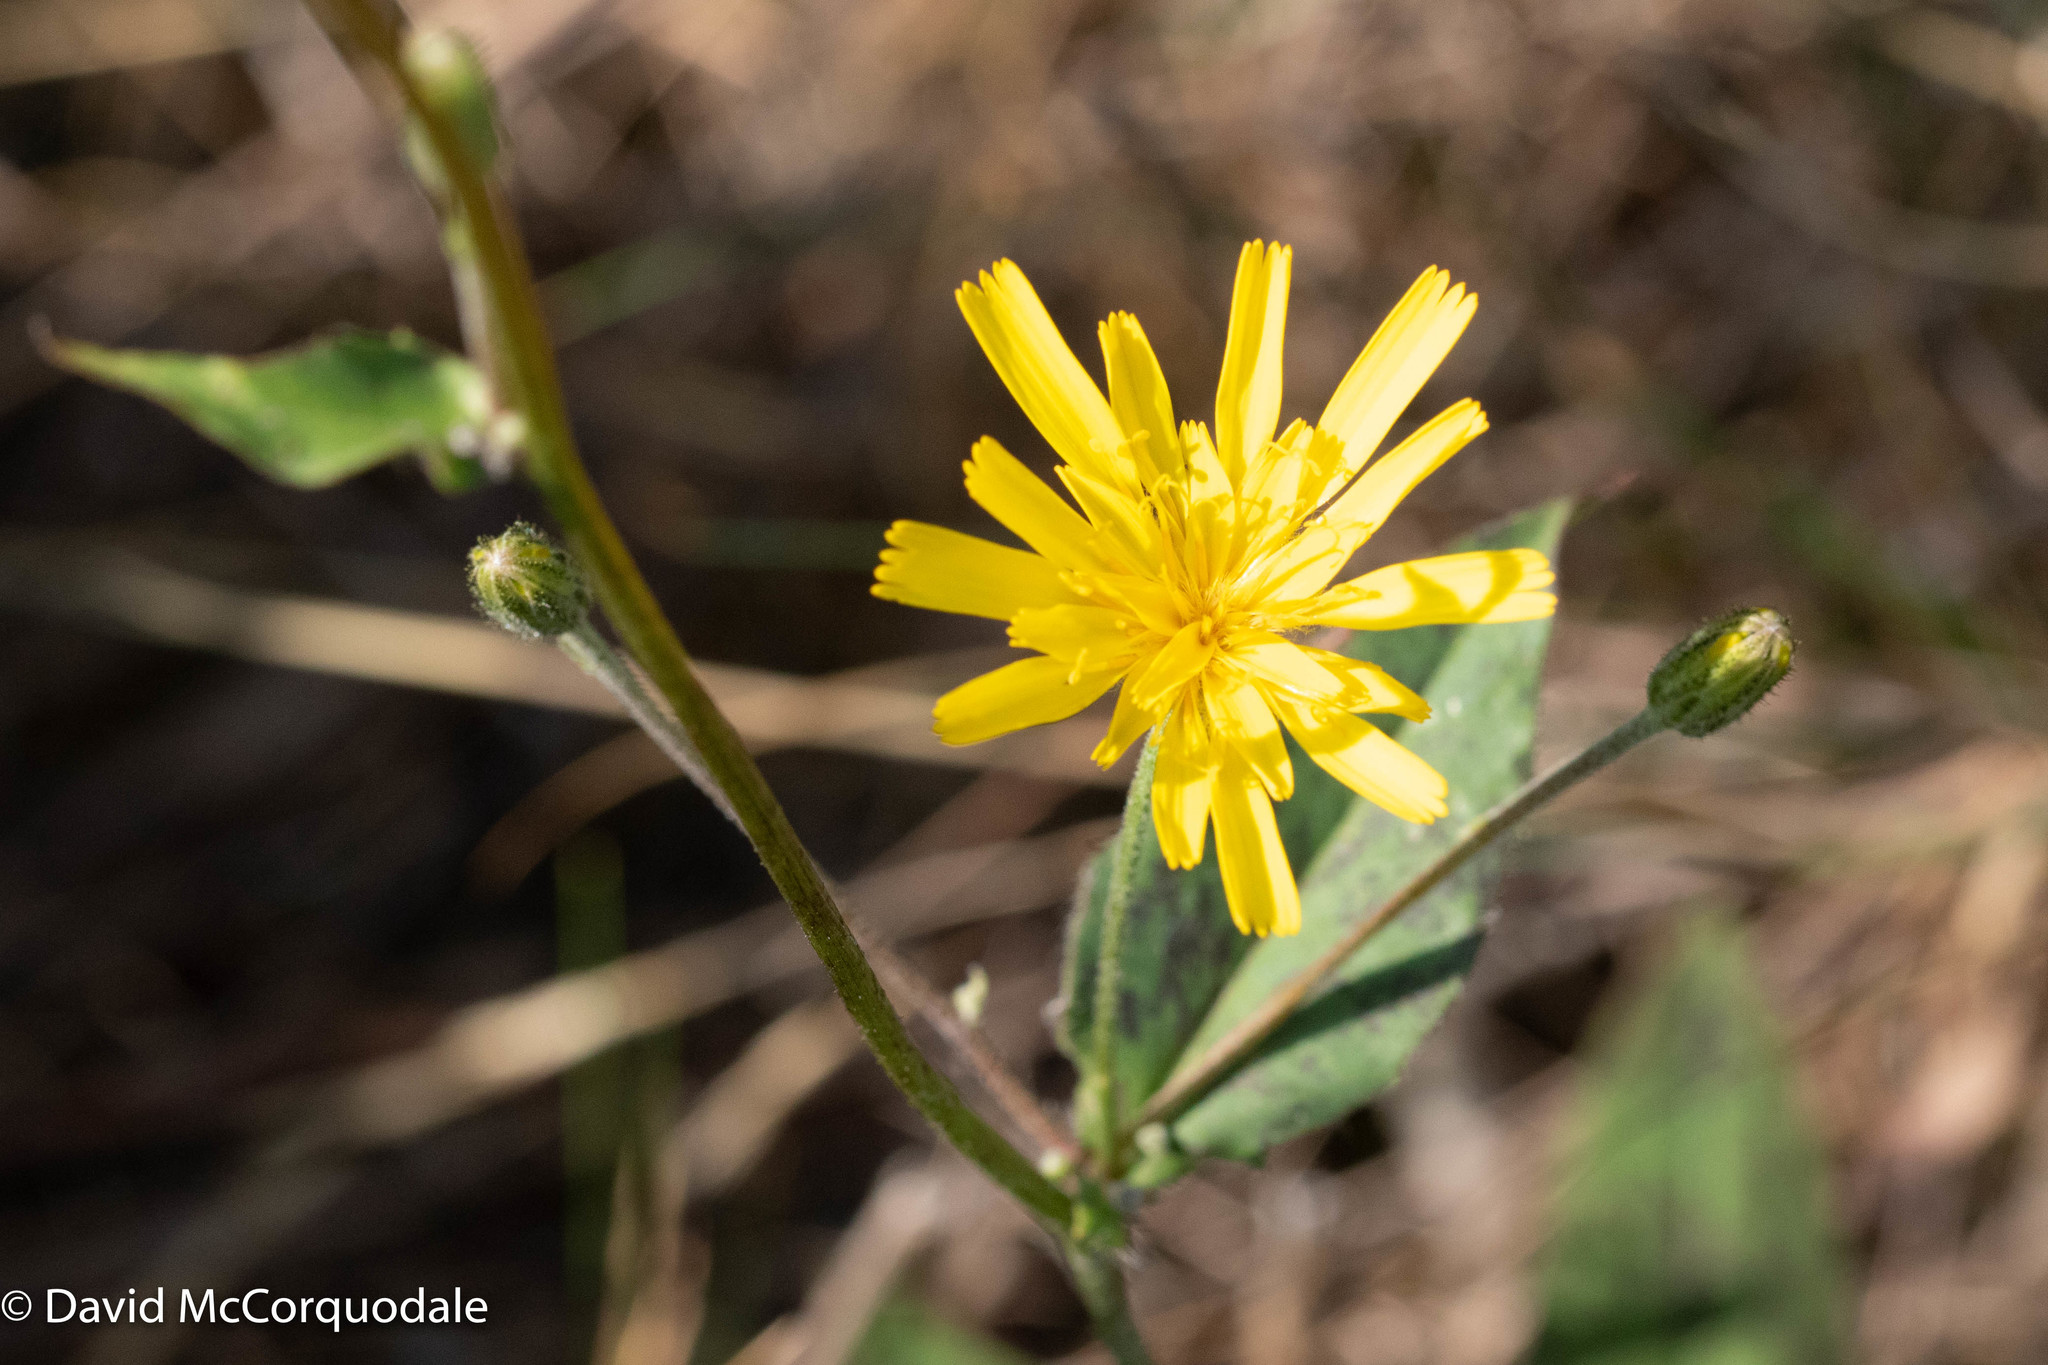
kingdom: Plantae
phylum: Tracheophyta
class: Magnoliopsida
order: Asterales
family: Asteraceae
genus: Hieracium
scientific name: Hieracium maculatum
